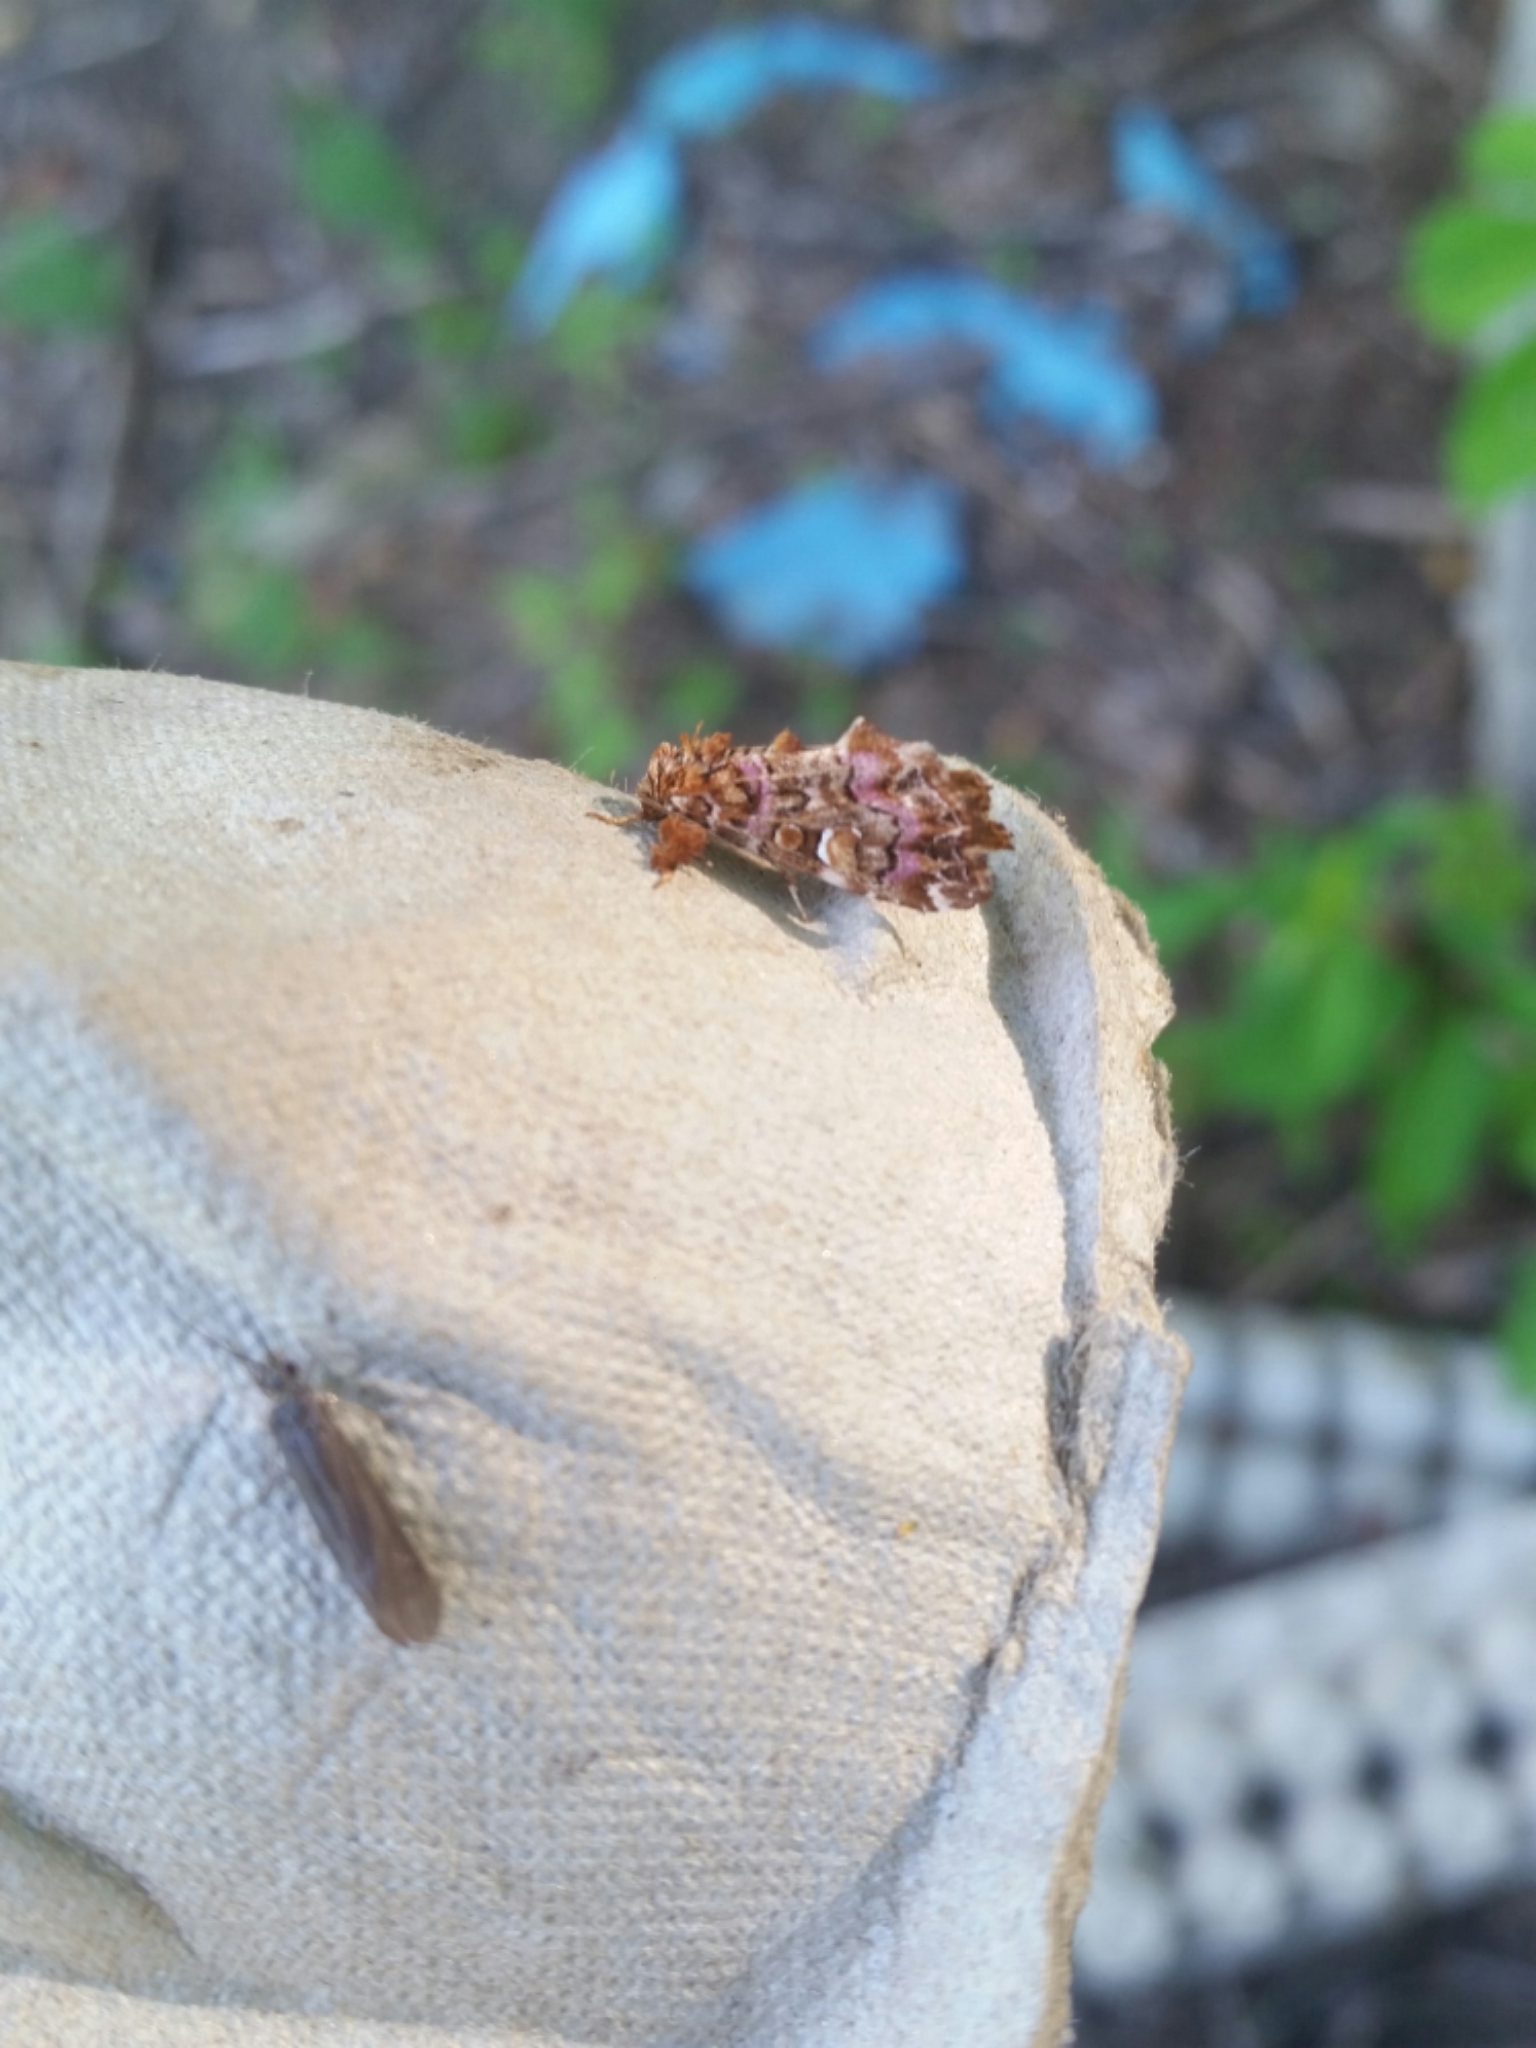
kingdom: Animalia
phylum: Arthropoda
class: Insecta
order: Lepidoptera
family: Noctuidae
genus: Callopistria
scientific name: Callopistria mollissima
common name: Pink-shaded fern moth
